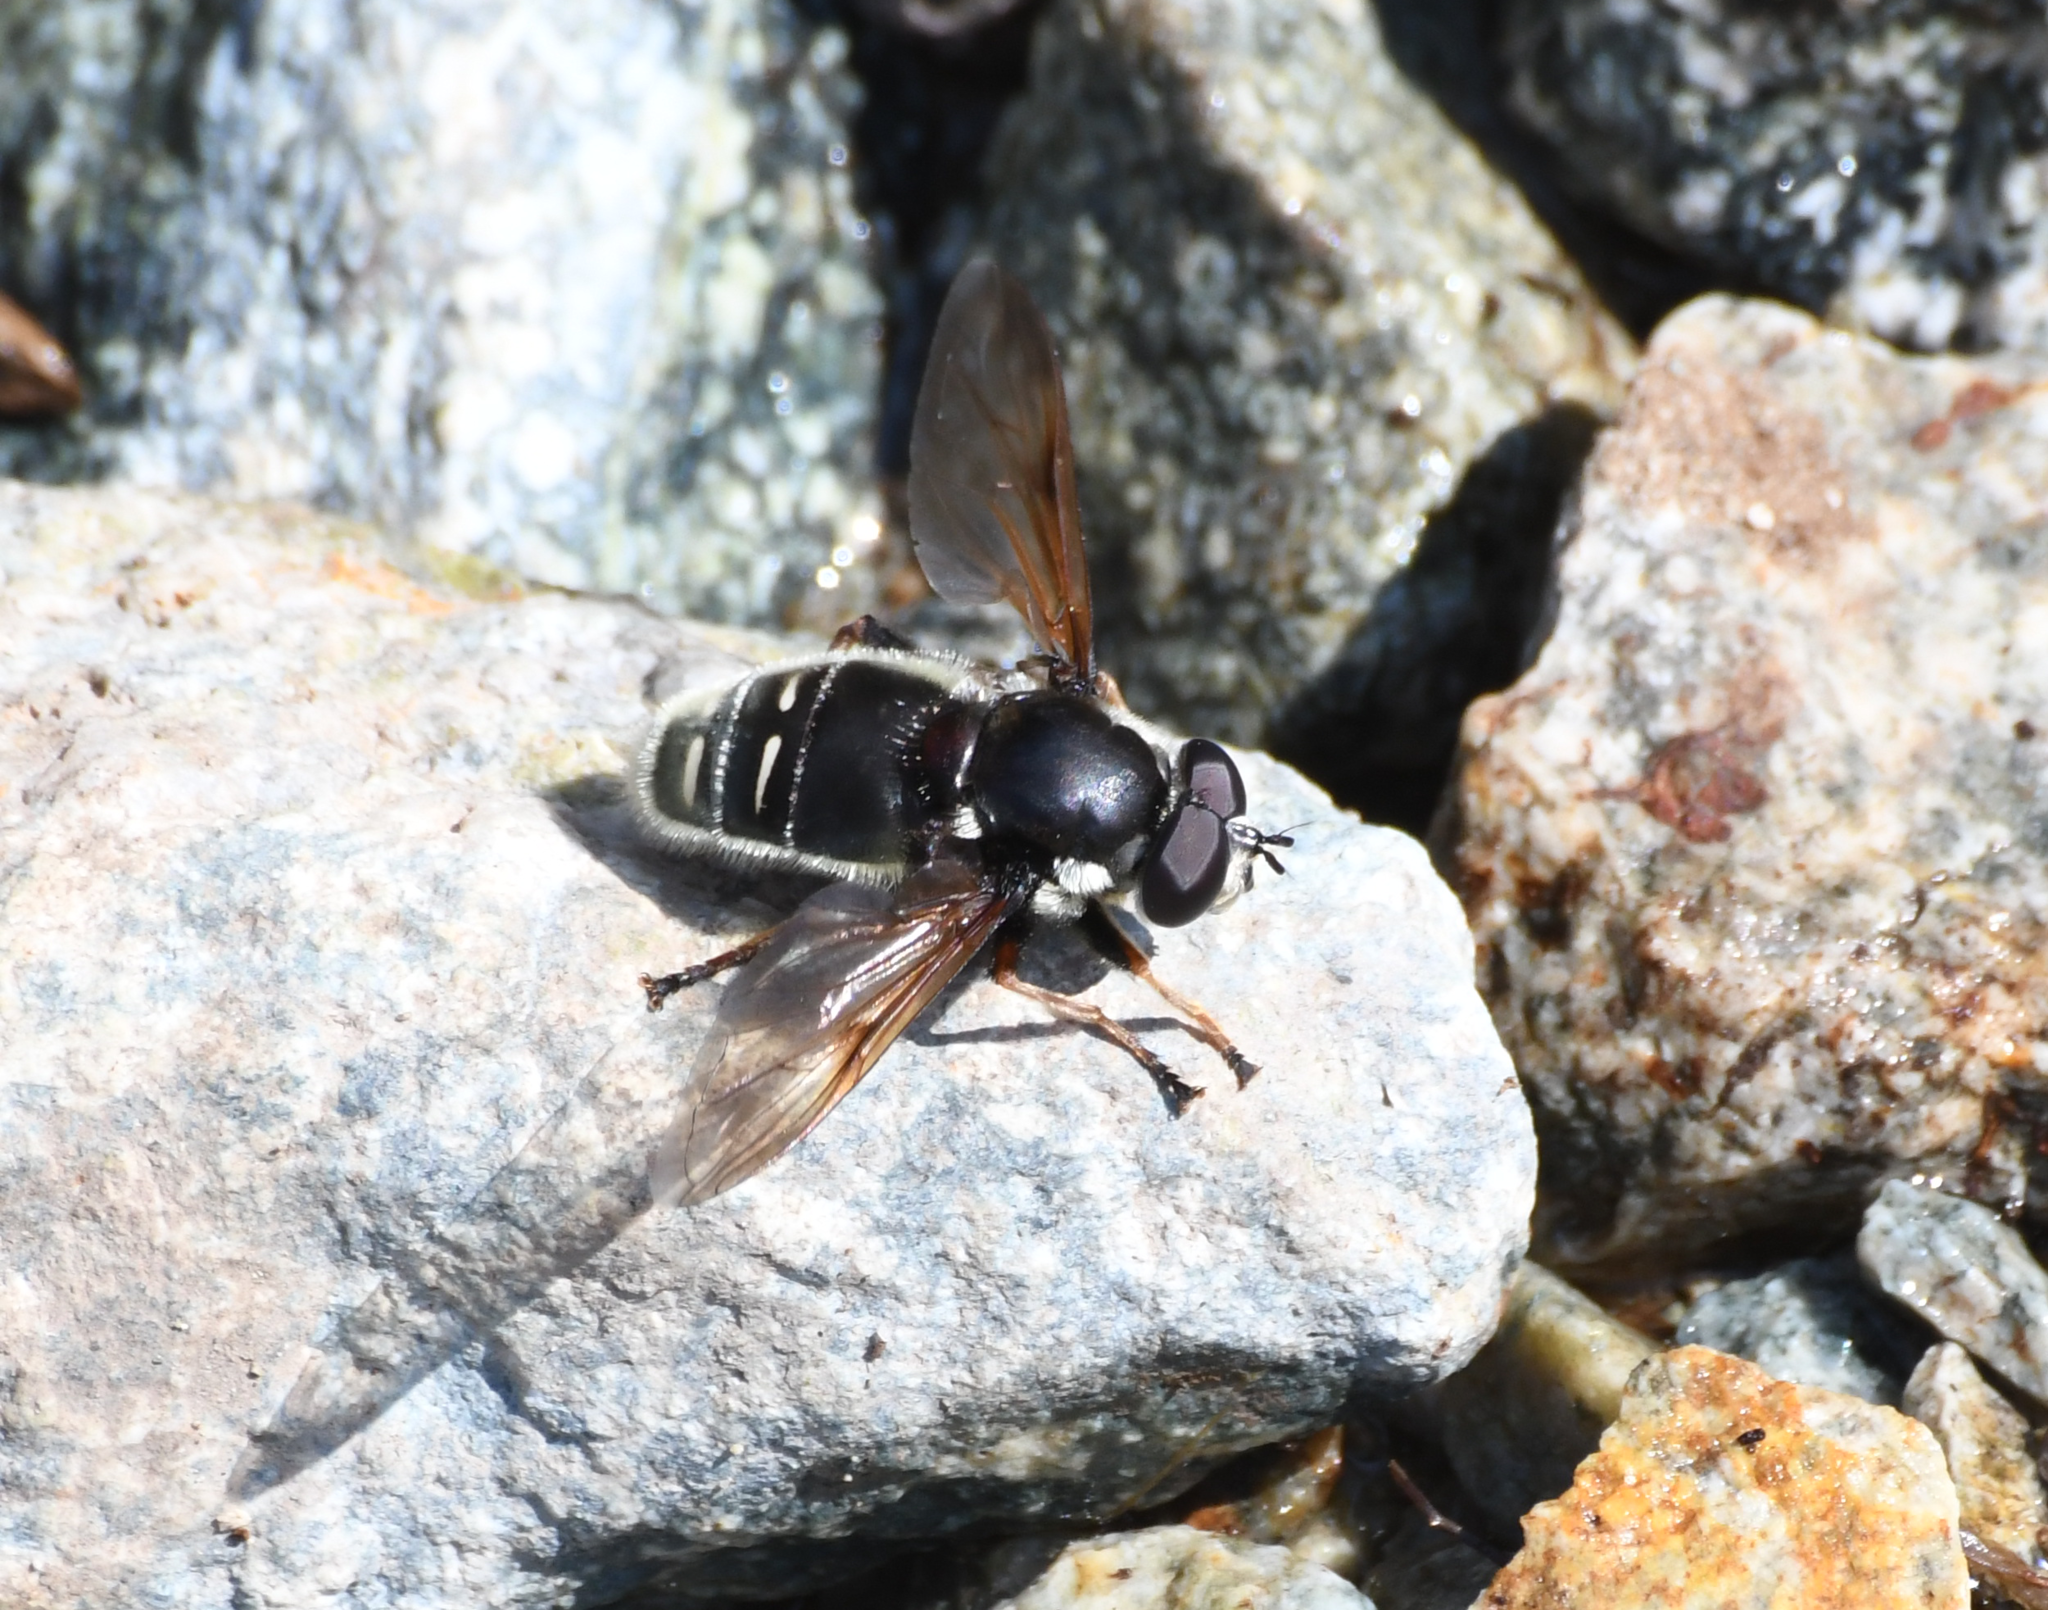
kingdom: Animalia
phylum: Arthropoda
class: Insecta
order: Diptera
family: Syrphidae
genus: Sericomyia
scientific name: Sericomyia militaris
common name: Narrow-banded pond fly
